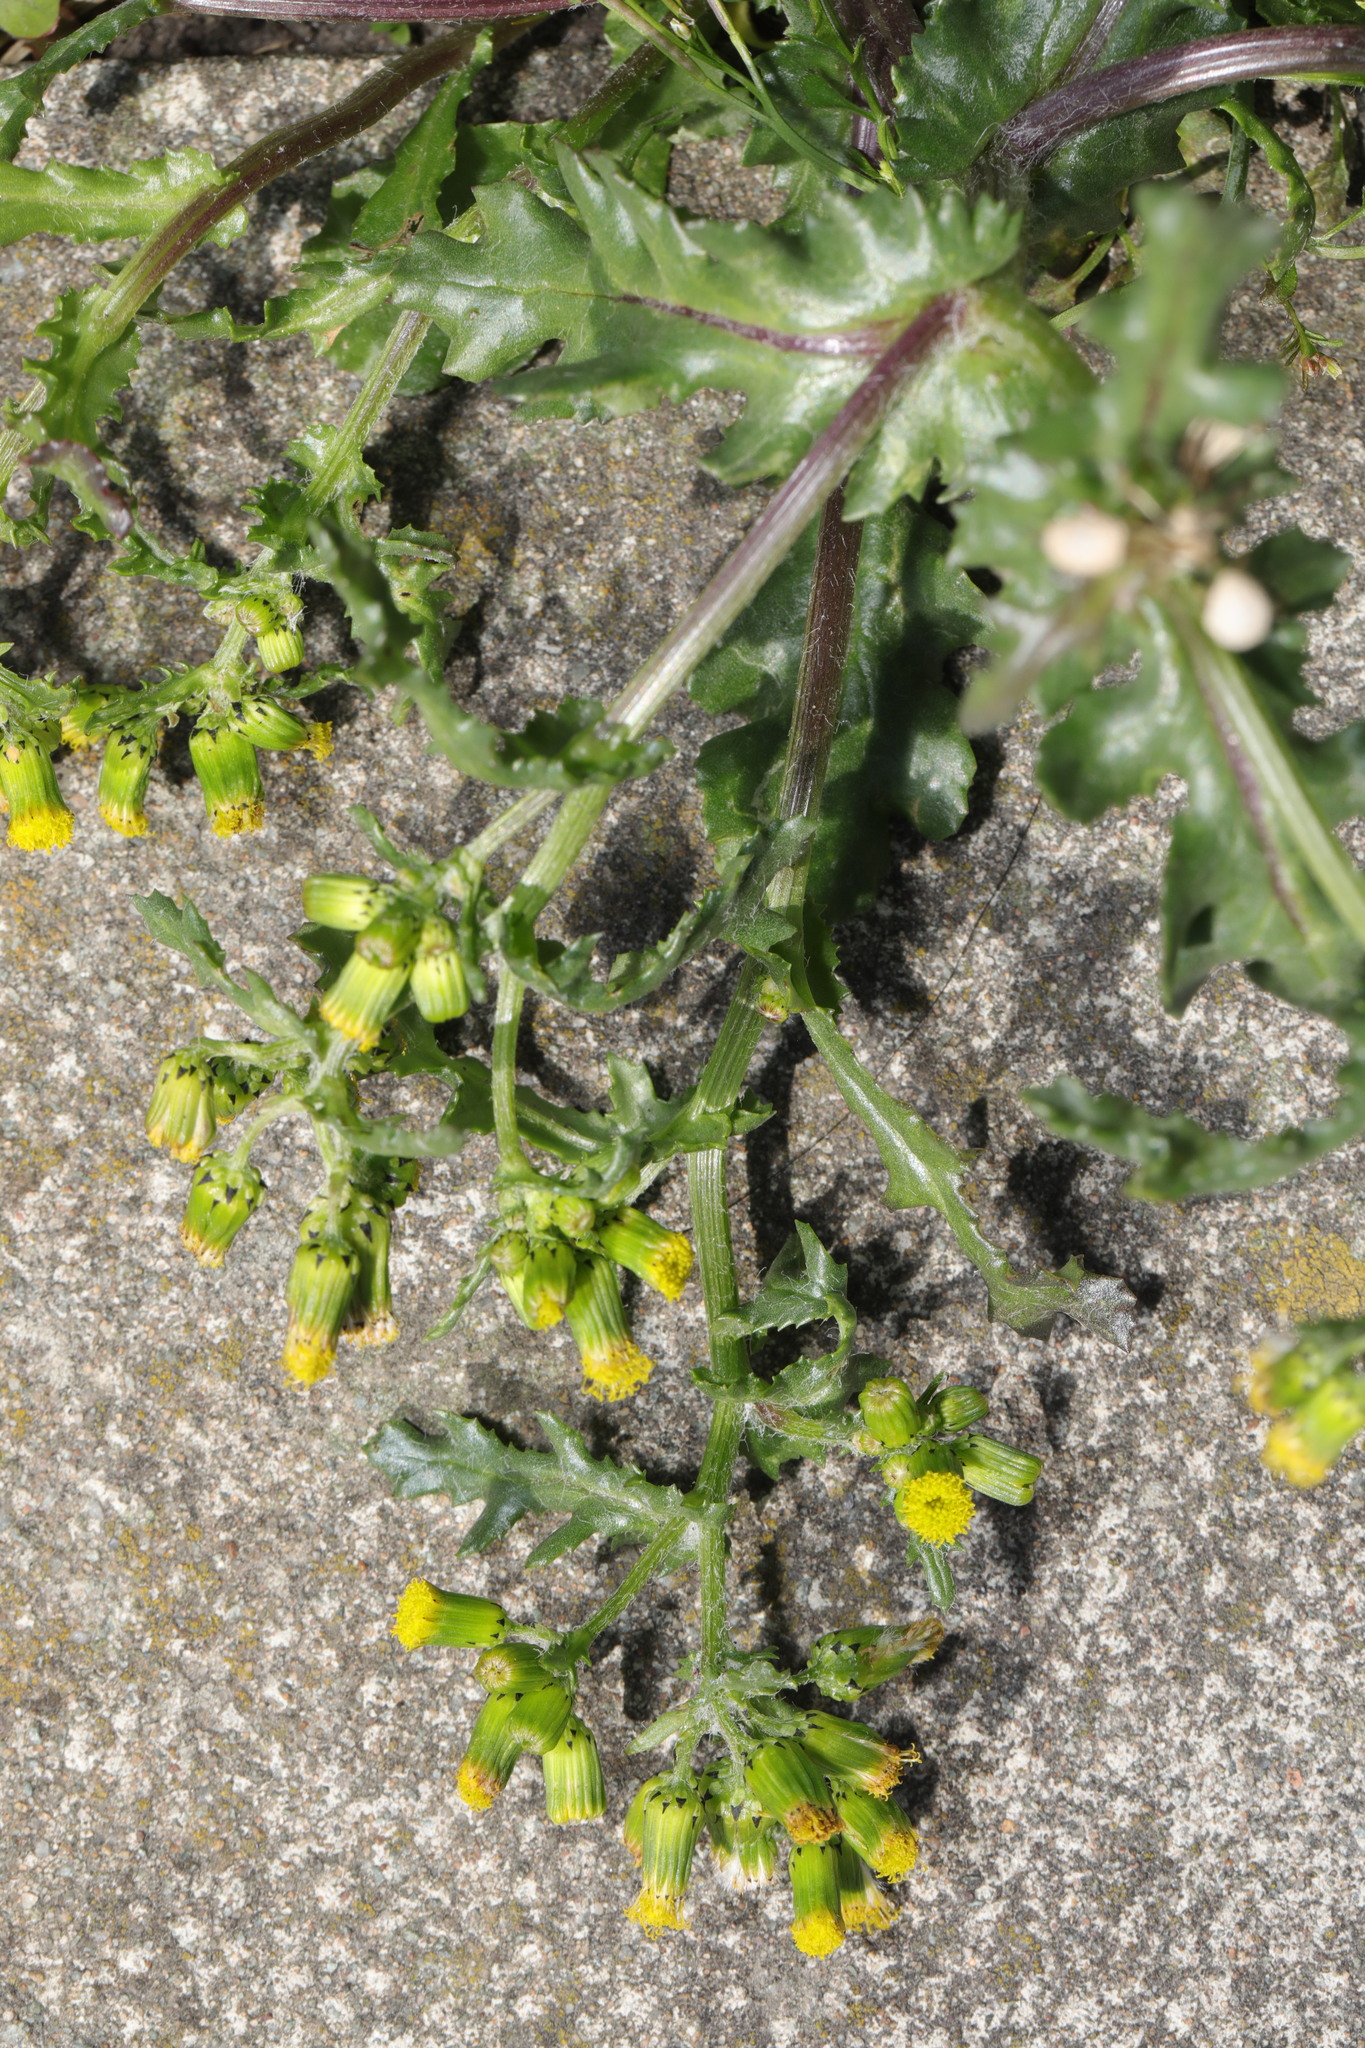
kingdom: Plantae
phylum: Tracheophyta
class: Magnoliopsida
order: Asterales
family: Asteraceae
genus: Senecio
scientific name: Senecio vulgaris
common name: Old-man-in-the-spring
